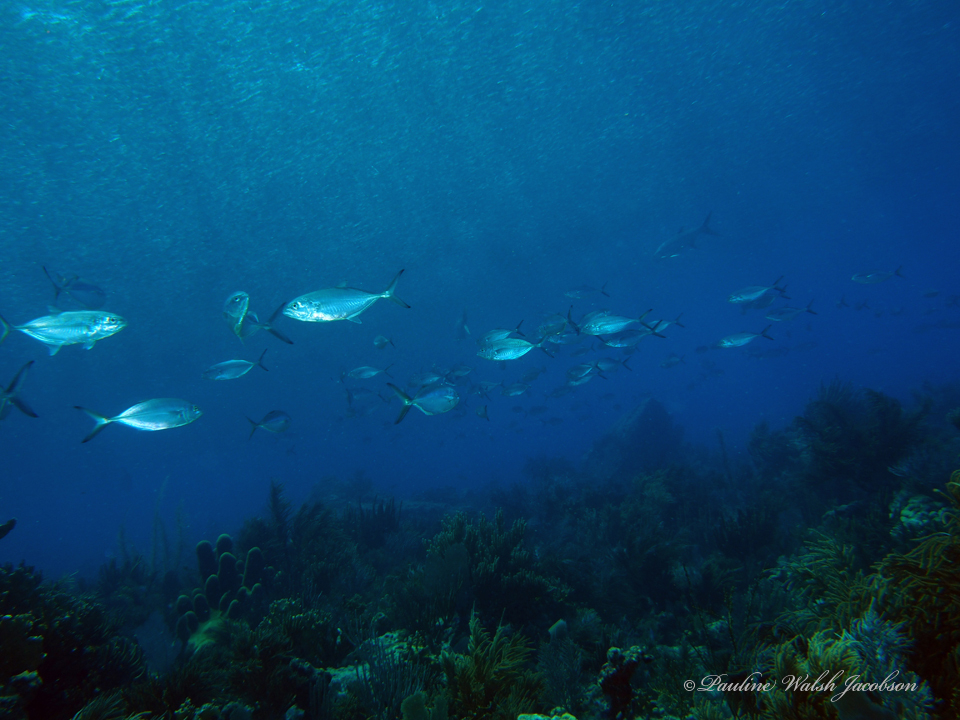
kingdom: Animalia
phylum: Chordata
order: Perciformes
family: Carangidae
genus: Caranx
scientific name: Caranx crysos
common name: Blue runner
